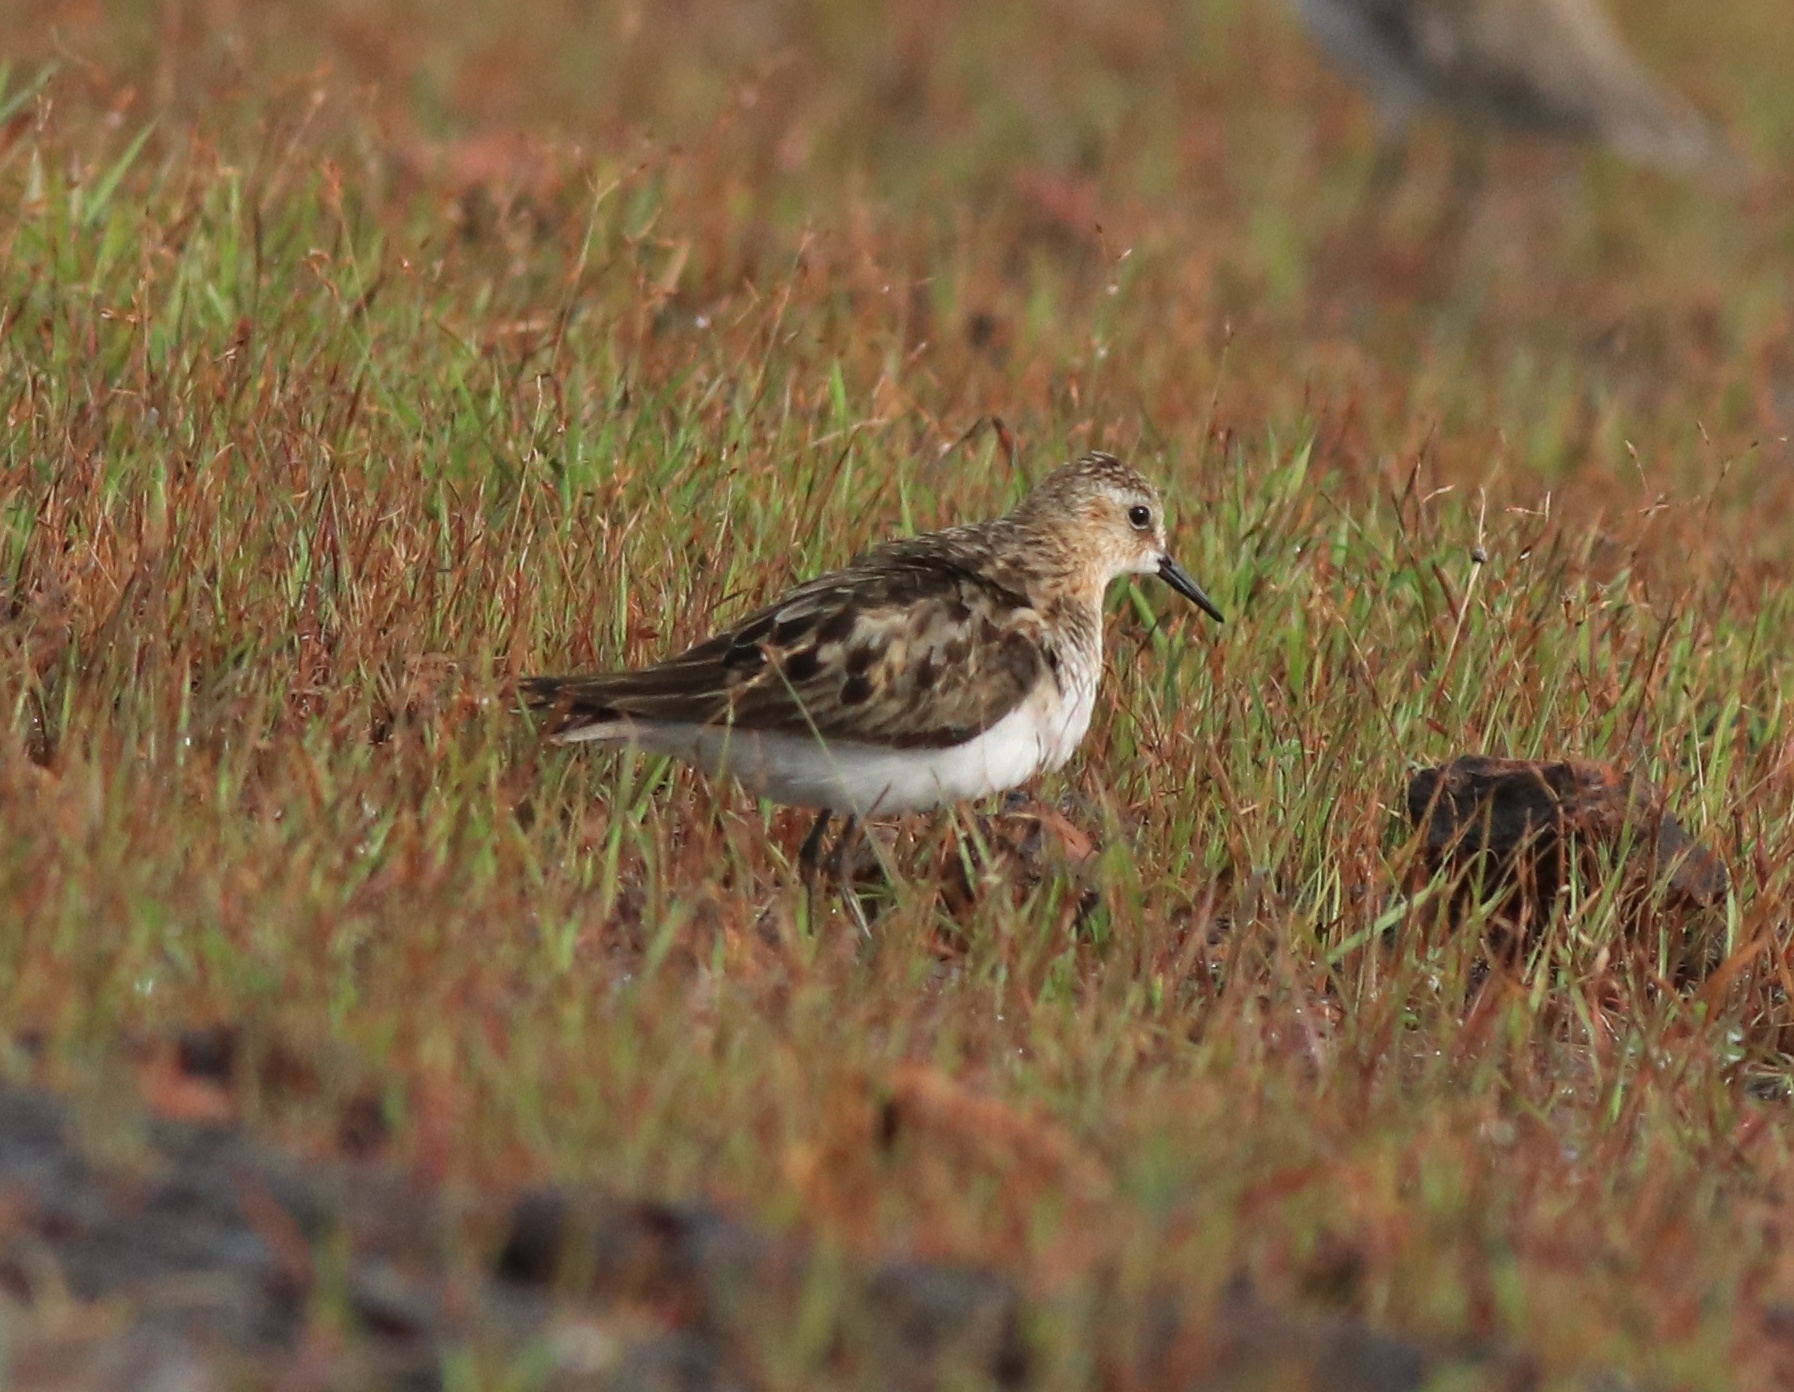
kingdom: Animalia
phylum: Chordata
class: Aves
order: Charadriiformes
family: Scolopacidae
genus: Calidris
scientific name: Calidris minuta
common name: Little stint
